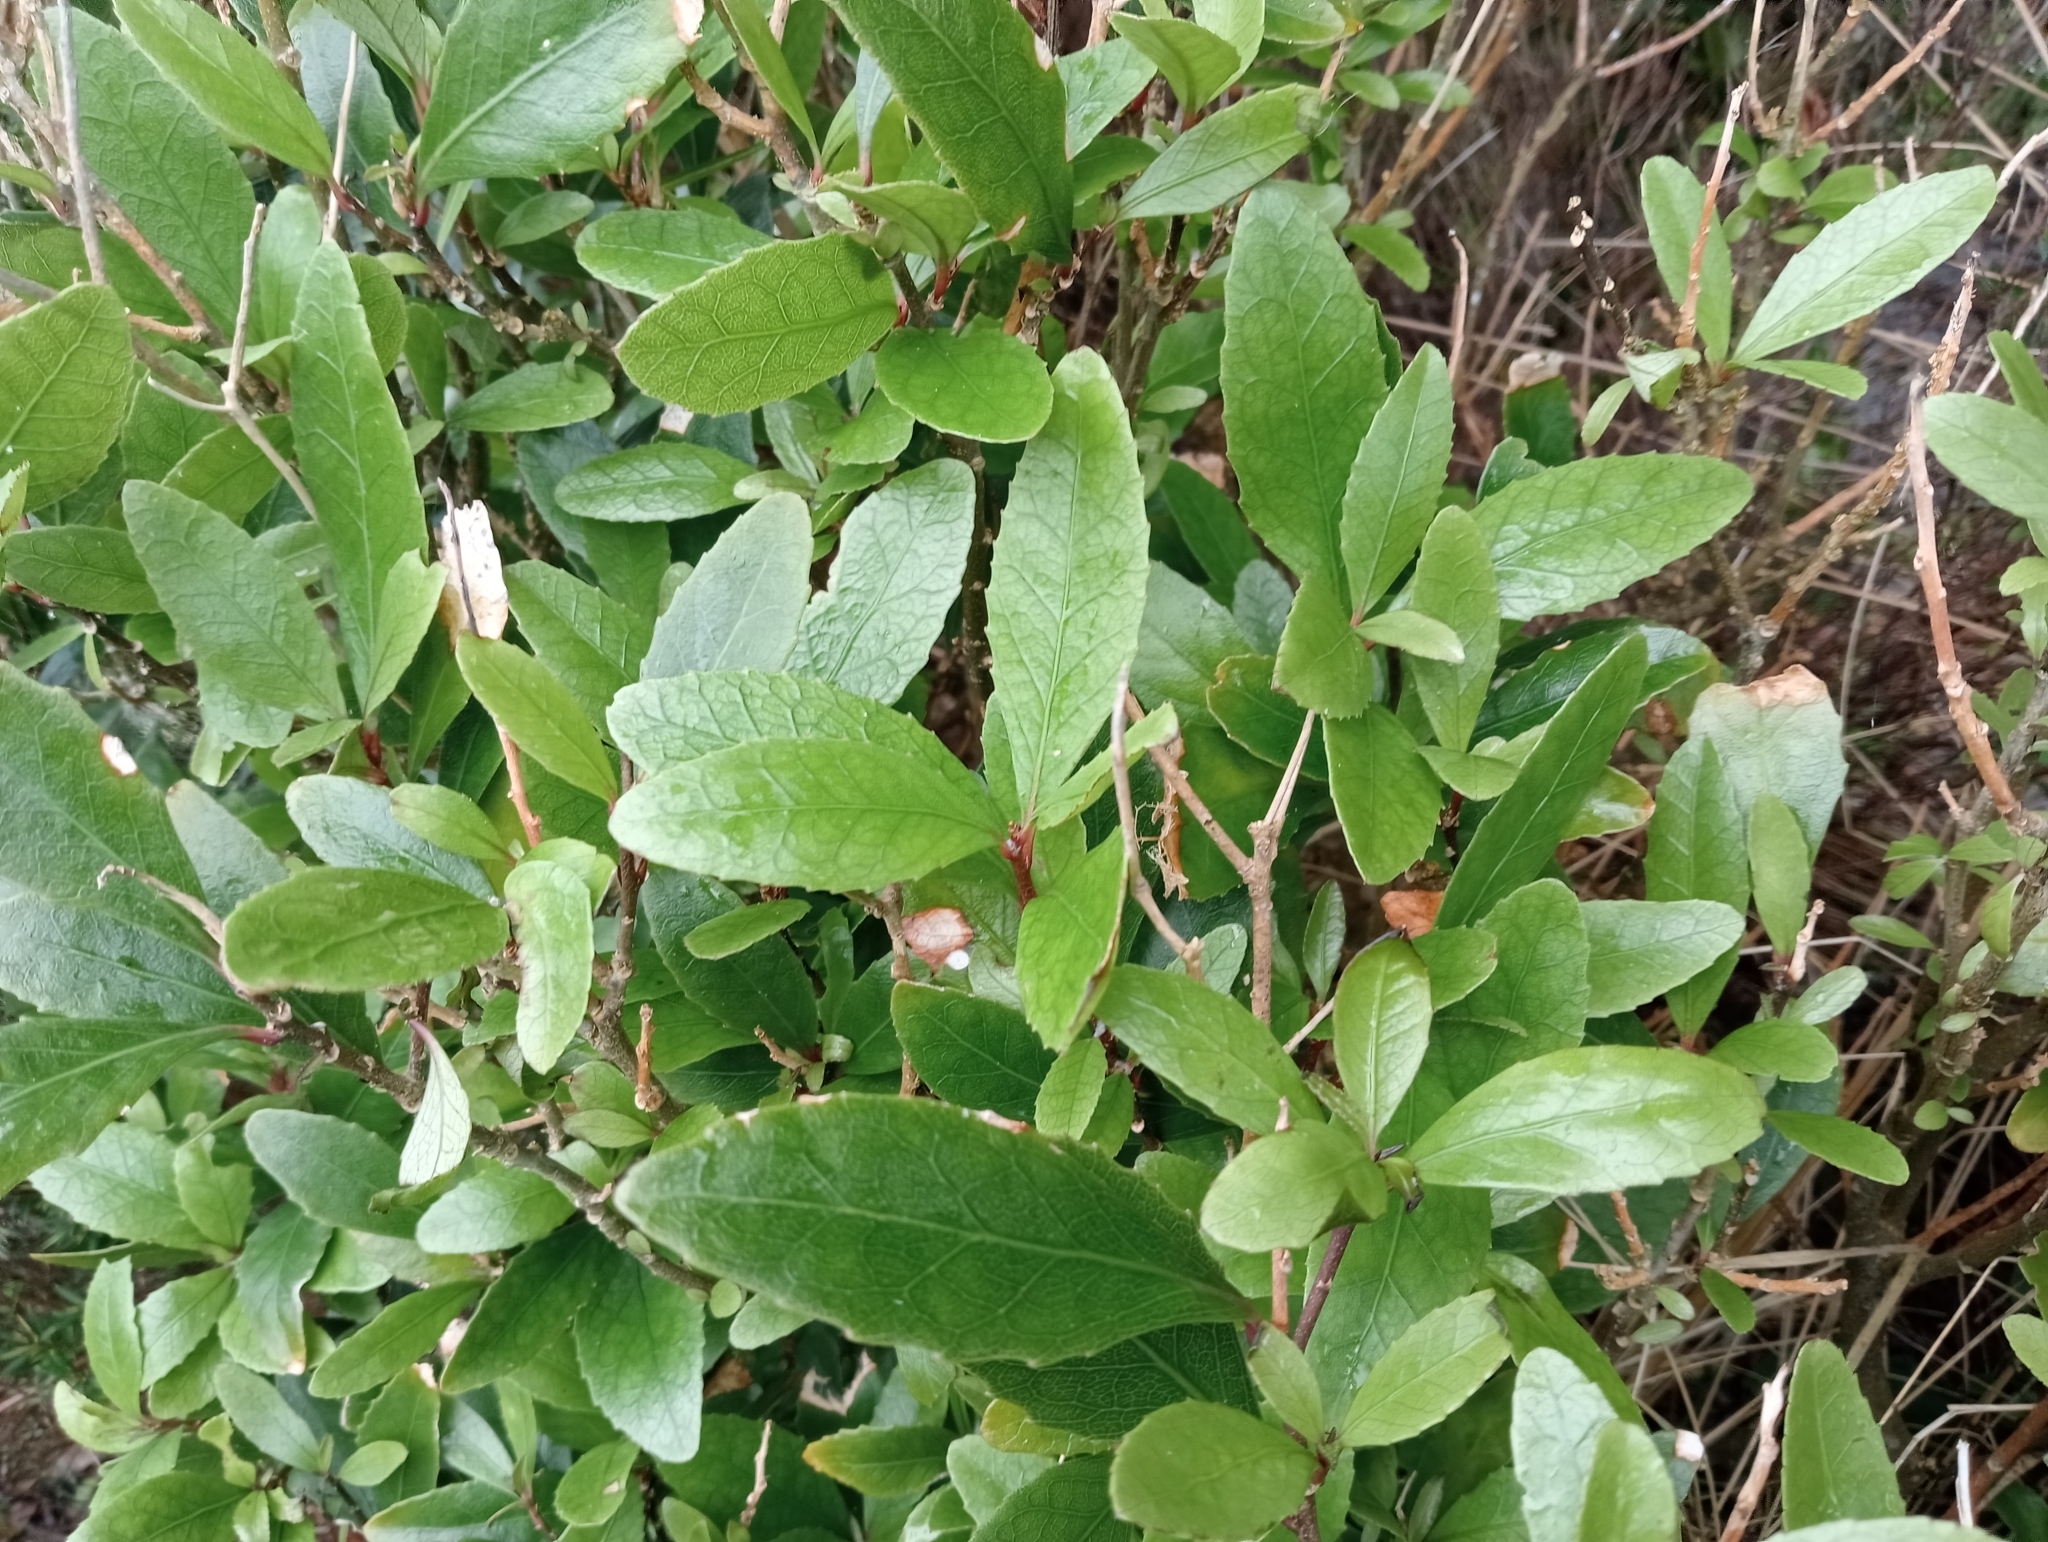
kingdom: Plantae
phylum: Tracheophyta
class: Magnoliopsida
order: Malpighiales
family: Violaceae
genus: Melicytus
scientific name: Melicytus chathamicus
